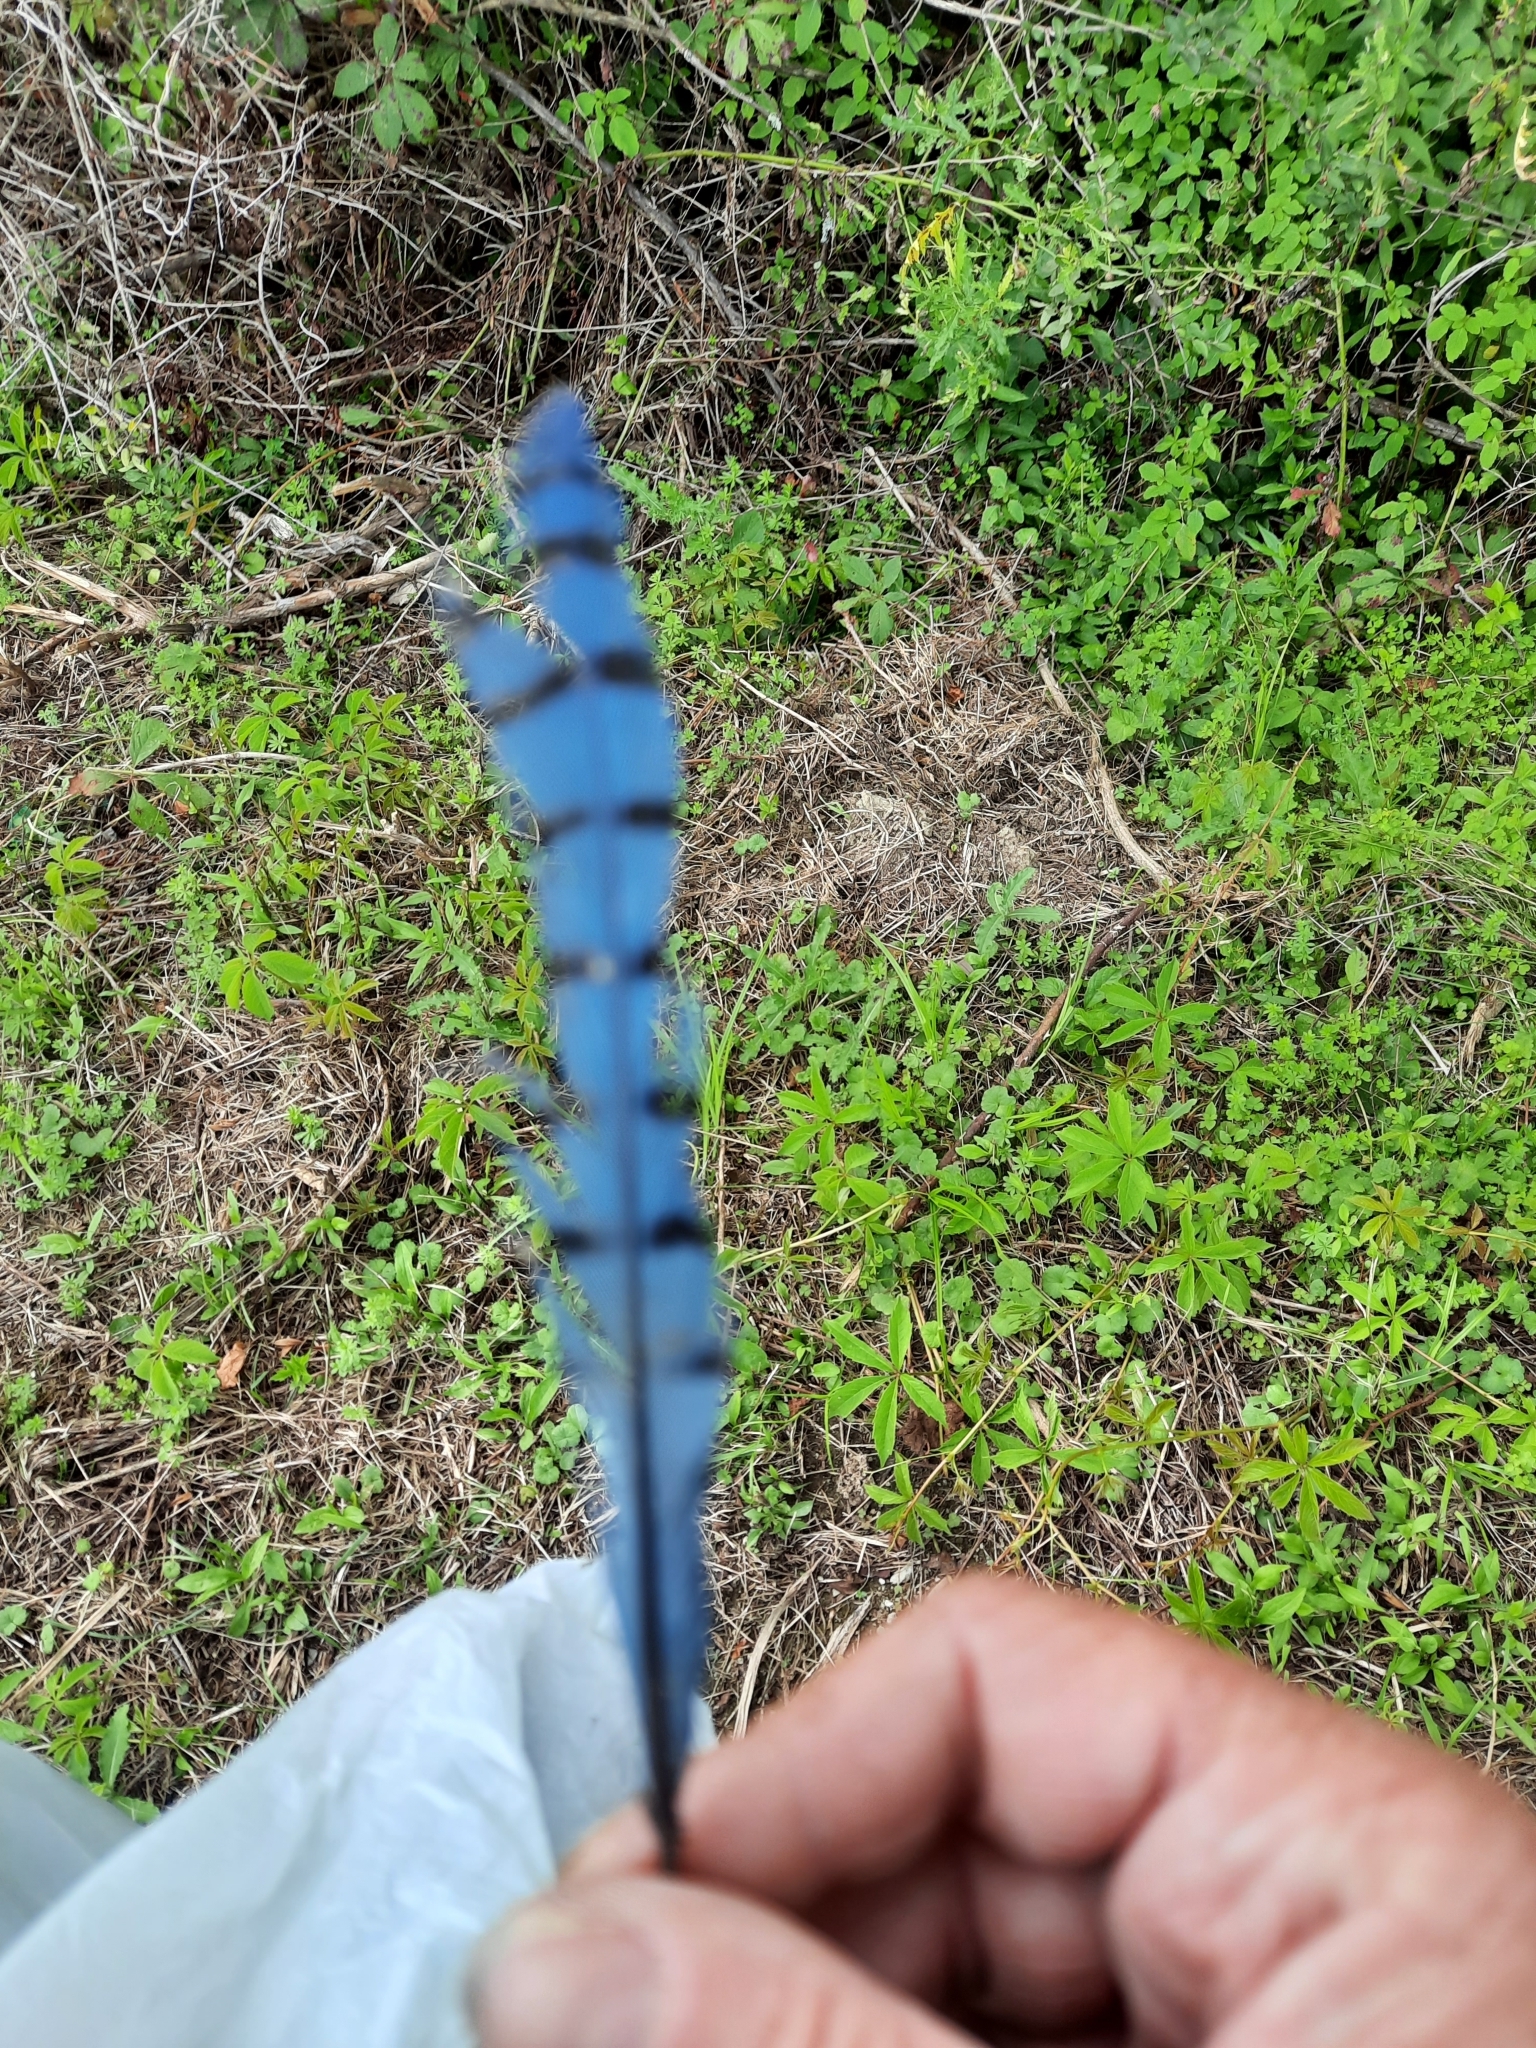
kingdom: Animalia
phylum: Chordata
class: Aves
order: Passeriformes
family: Corvidae
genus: Cyanocitta
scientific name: Cyanocitta cristata
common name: Blue jay
